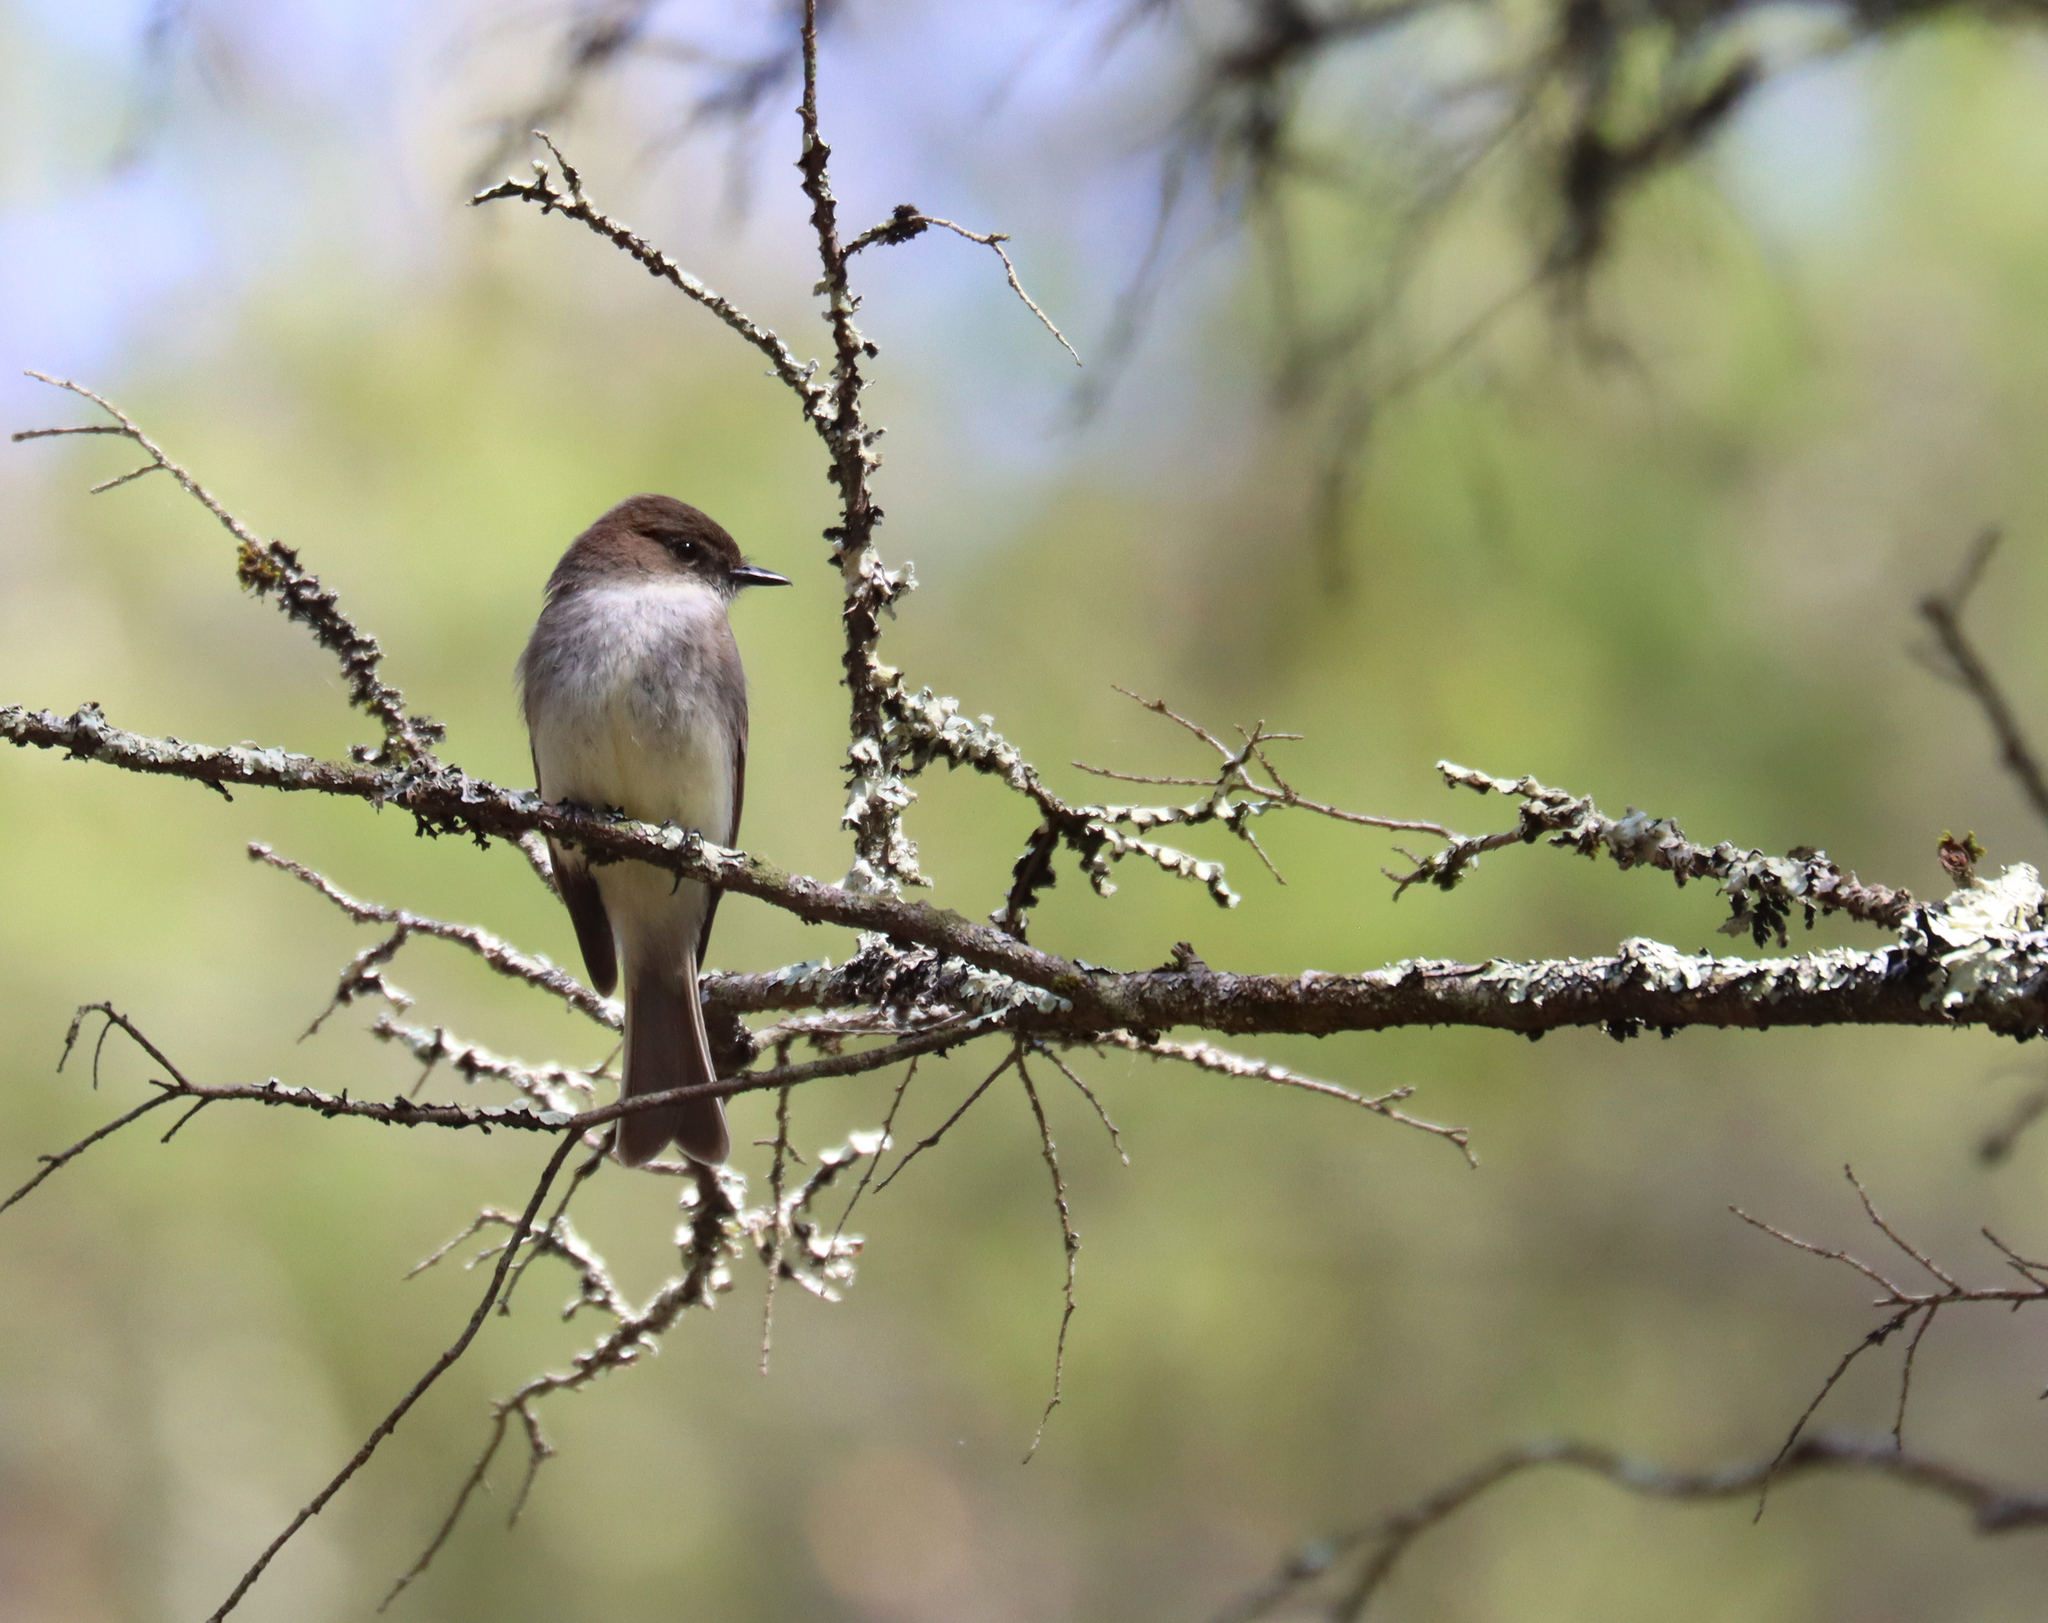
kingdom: Animalia
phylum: Chordata
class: Aves
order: Passeriformes
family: Tyrannidae
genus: Sayornis
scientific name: Sayornis phoebe
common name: Eastern phoebe
